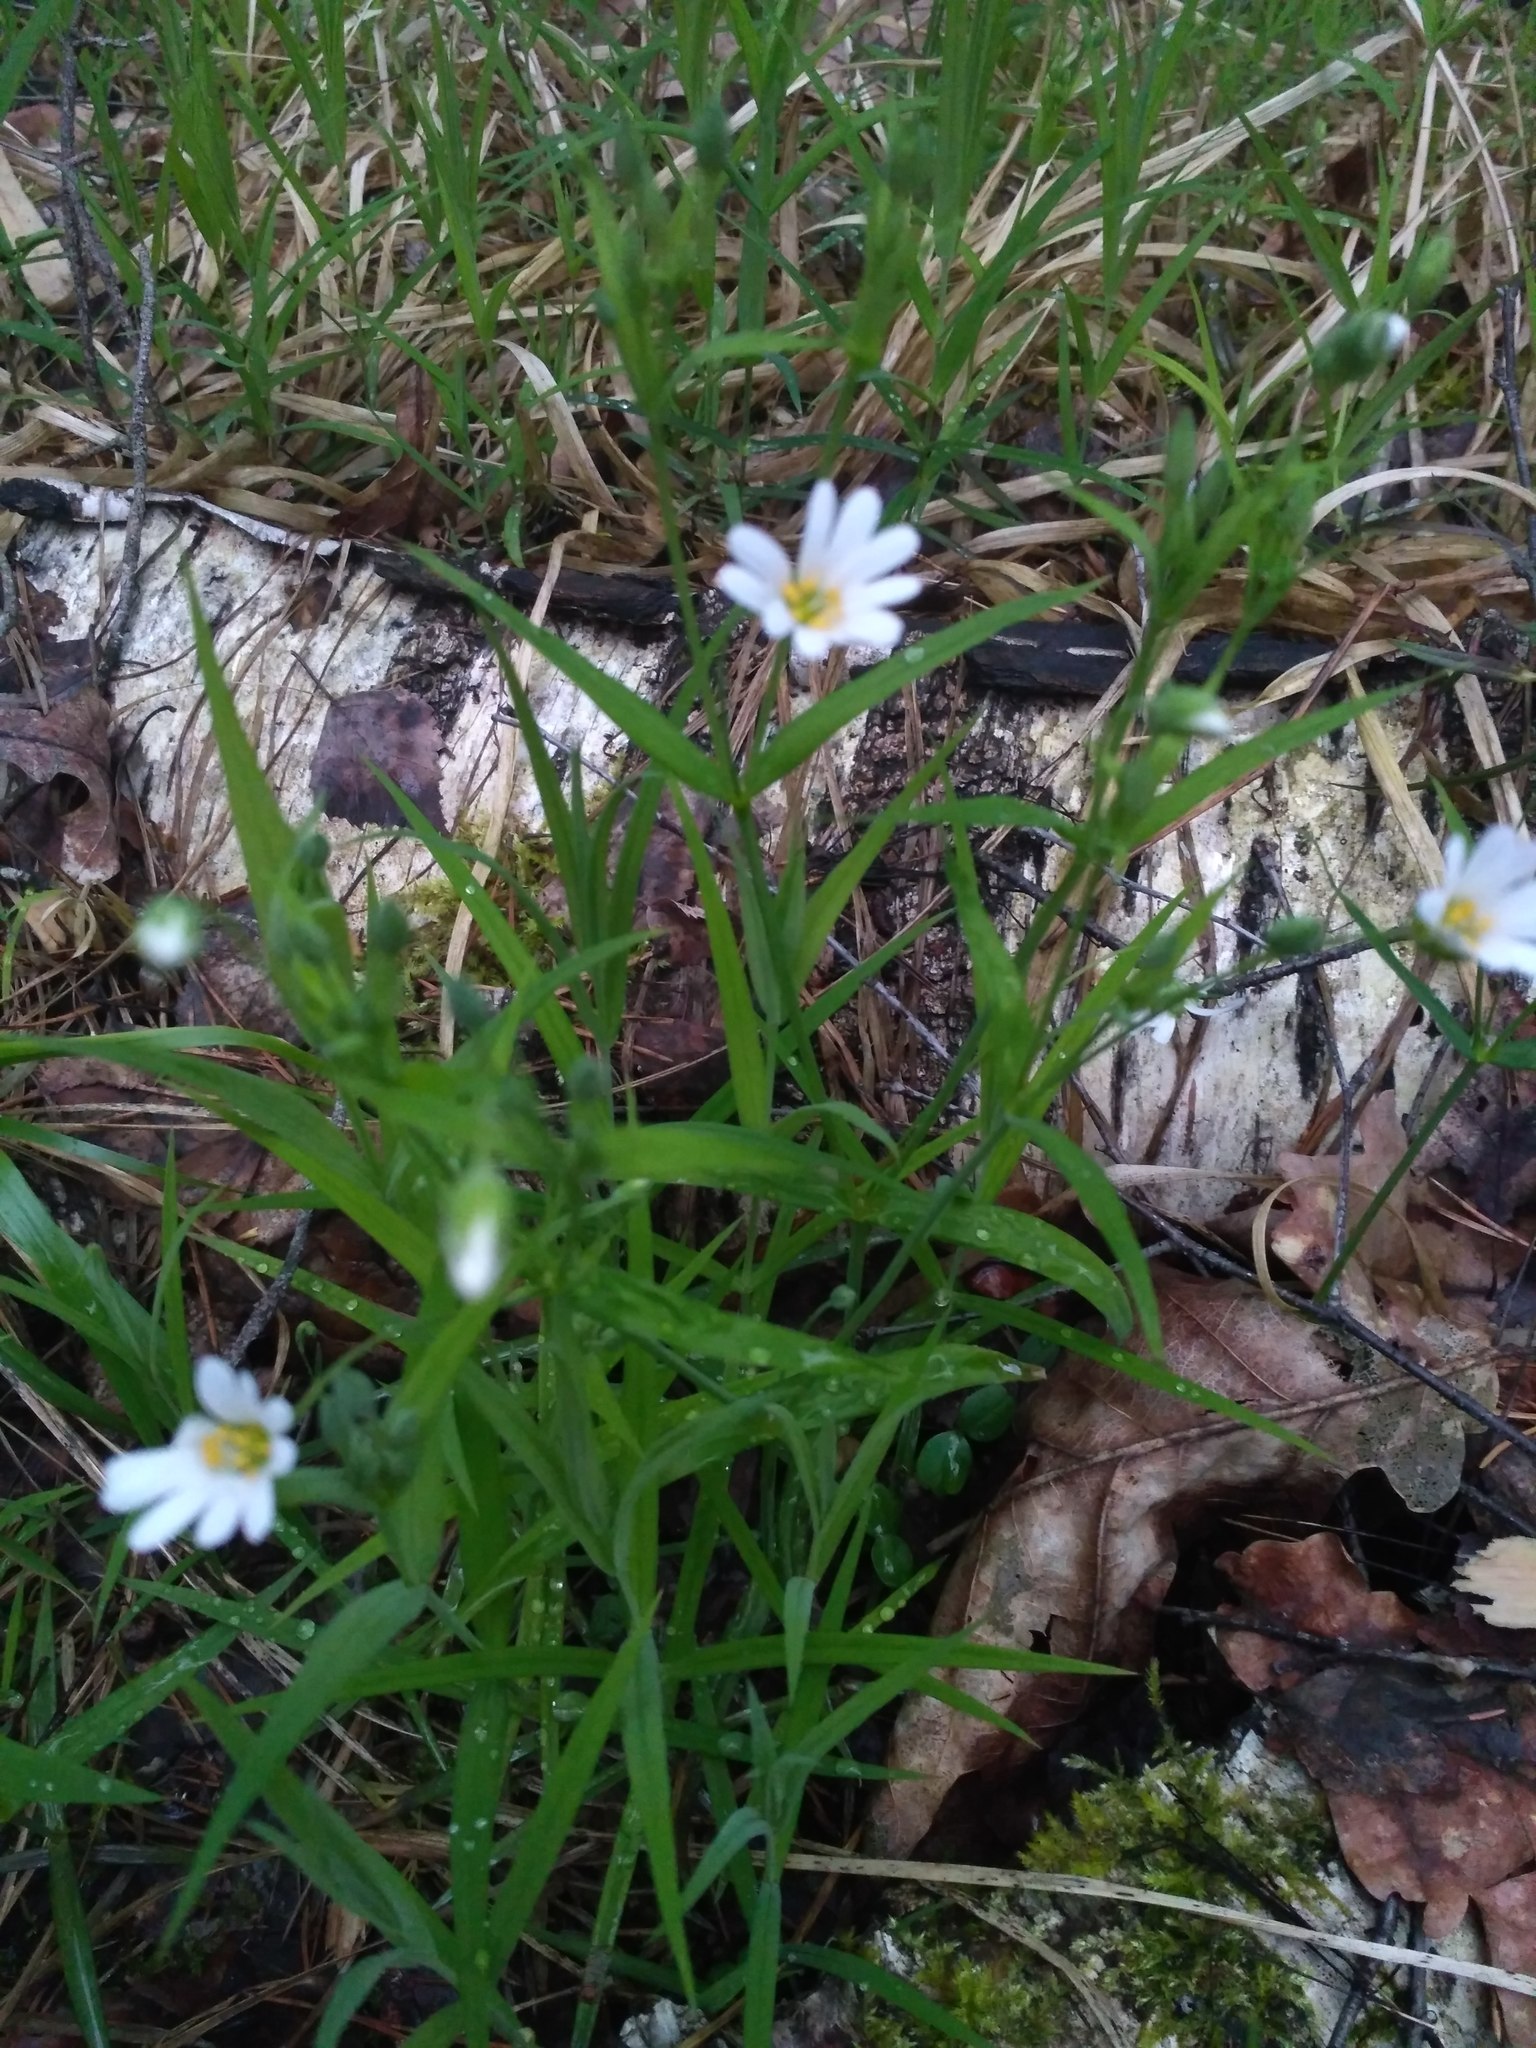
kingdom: Plantae
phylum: Tracheophyta
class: Magnoliopsida
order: Caryophyllales
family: Caryophyllaceae
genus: Rabelera
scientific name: Rabelera holostea
